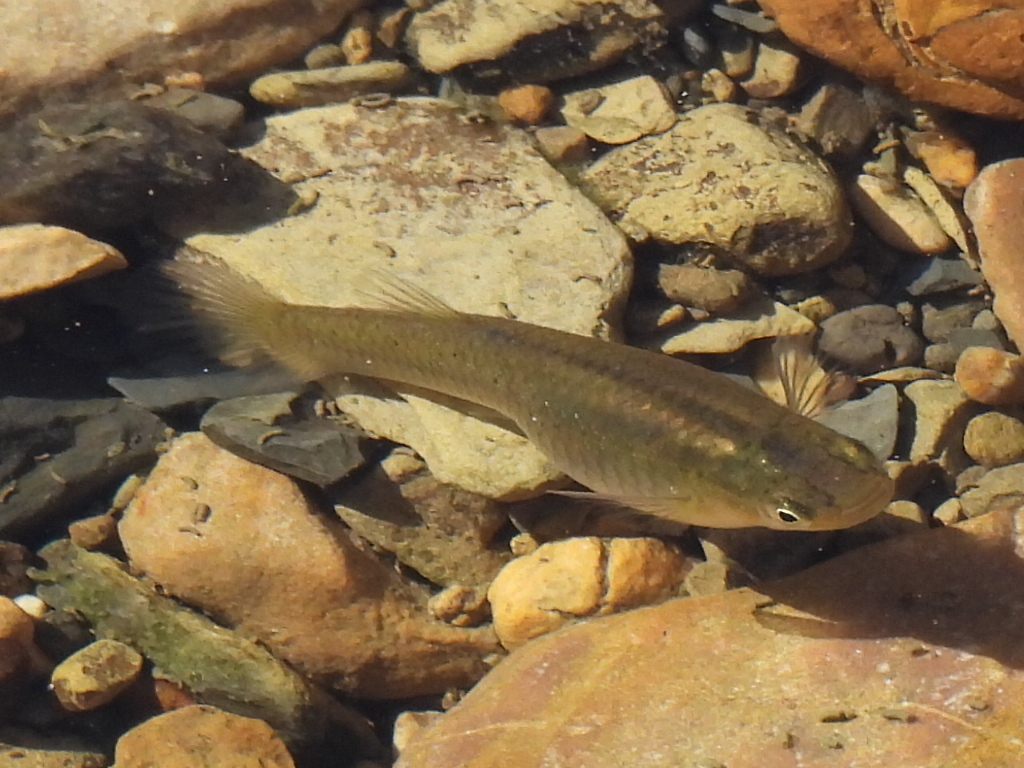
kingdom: Animalia
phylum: Chordata
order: Cyprinodontiformes
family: Poeciliidae
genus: Gambusia
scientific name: Gambusia affinis
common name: Mosquitofish
